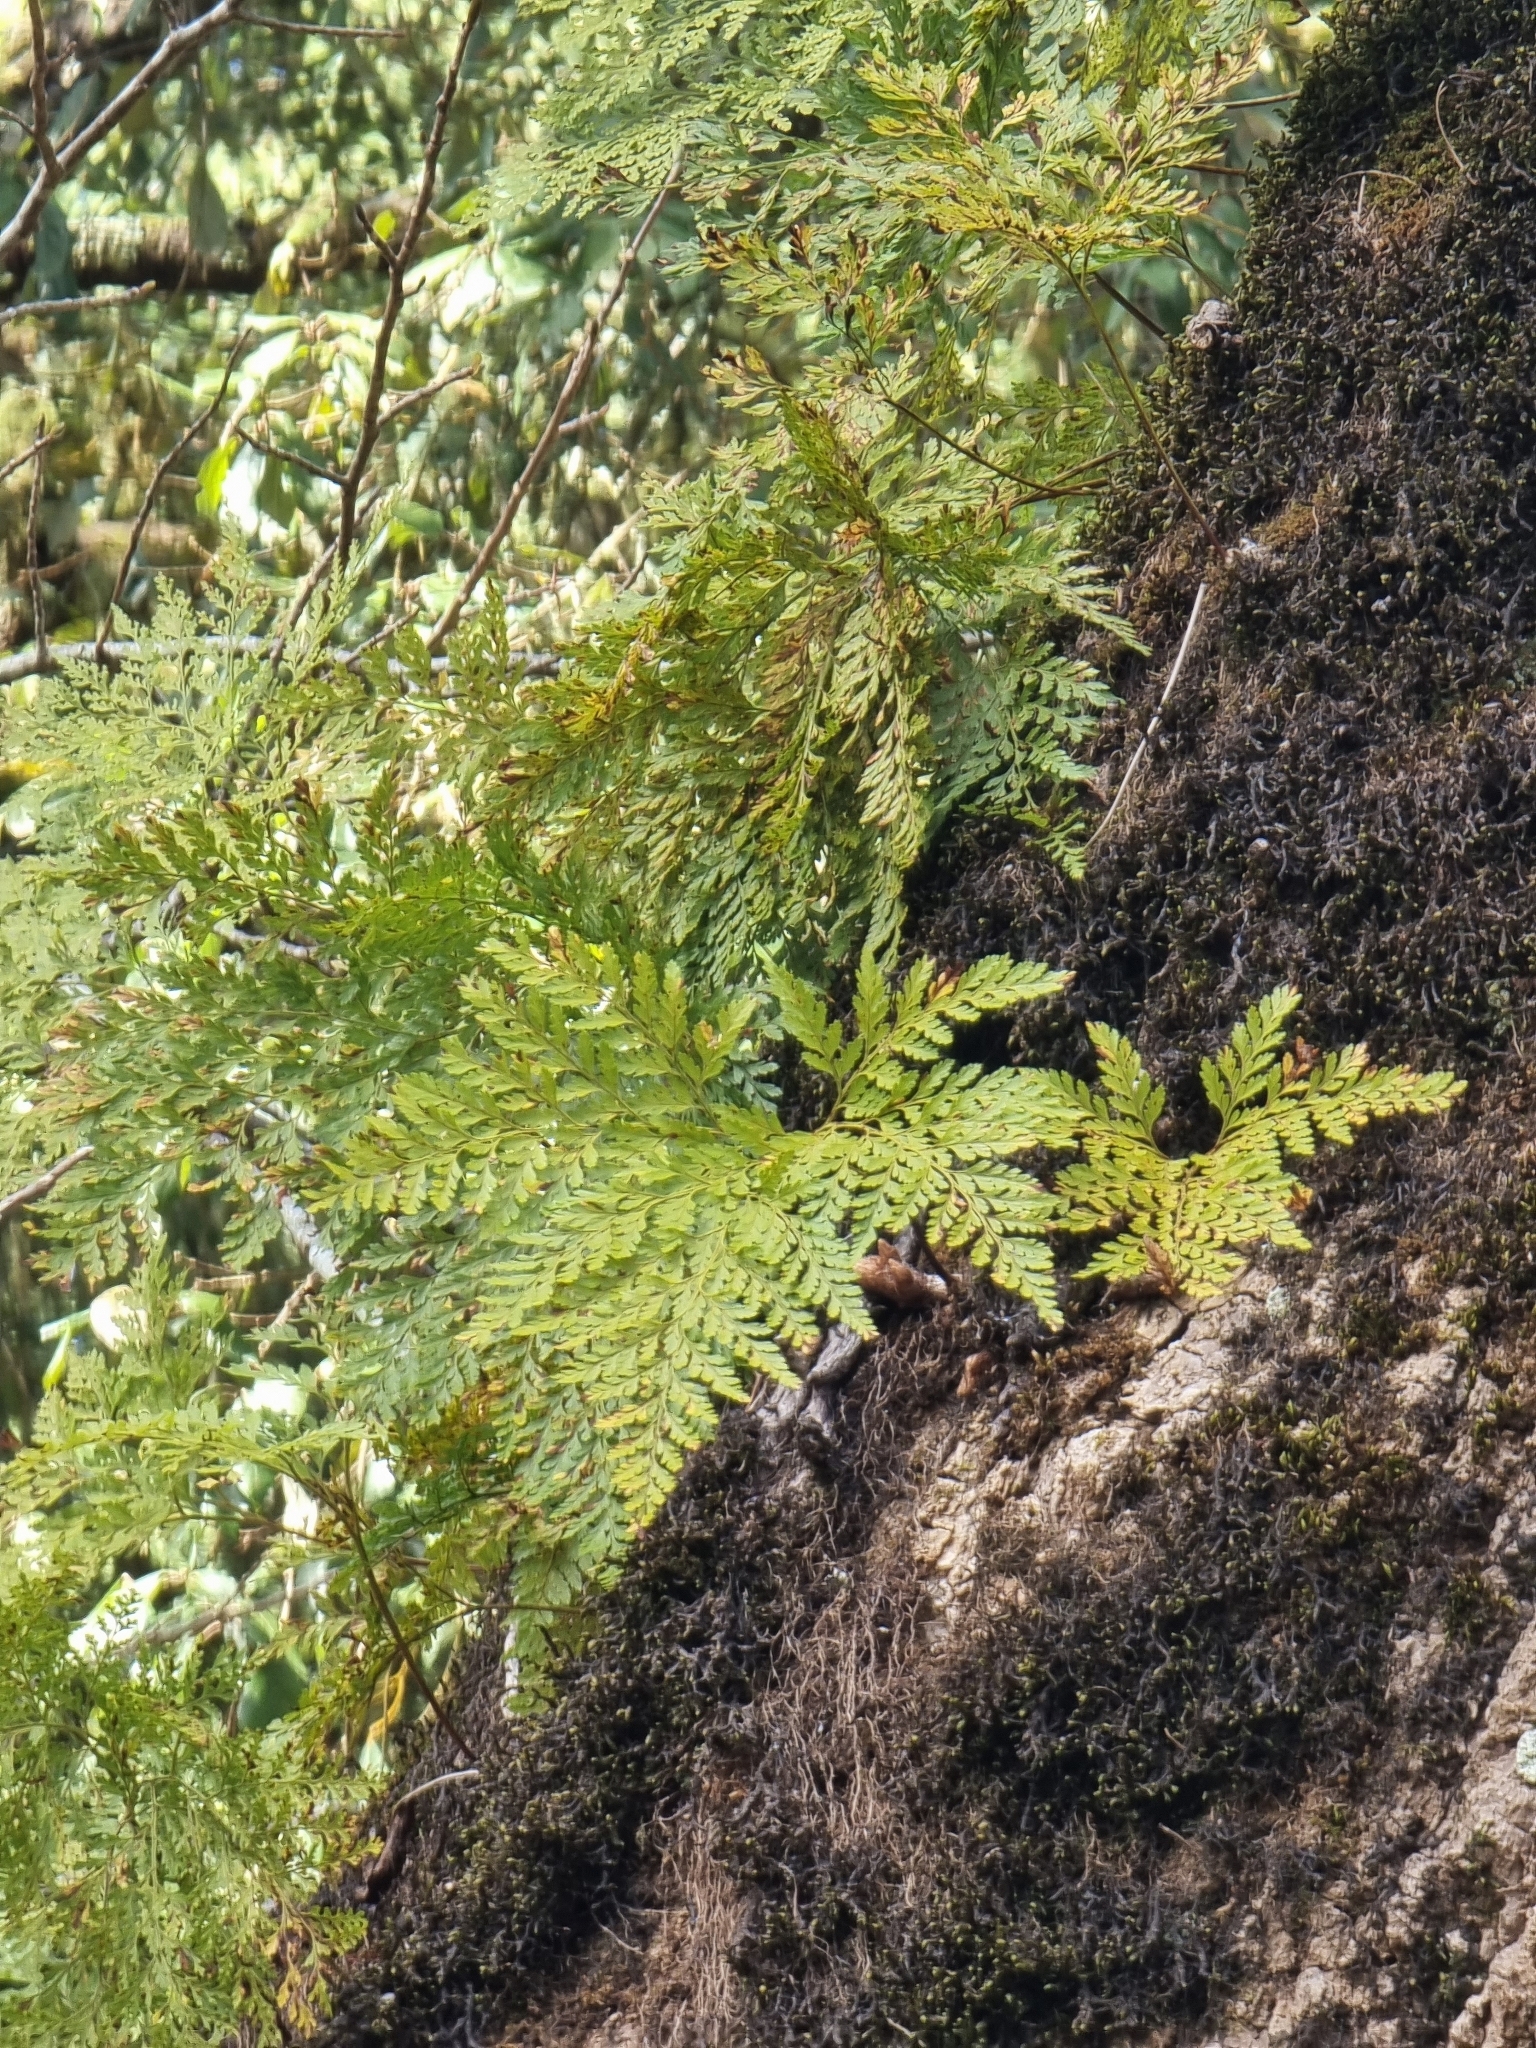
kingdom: Plantae
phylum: Tracheophyta
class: Polypodiopsida
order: Polypodiales
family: Davalliaceae
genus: Davallia
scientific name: Davallia canariensis
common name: Hare's-foot fern
